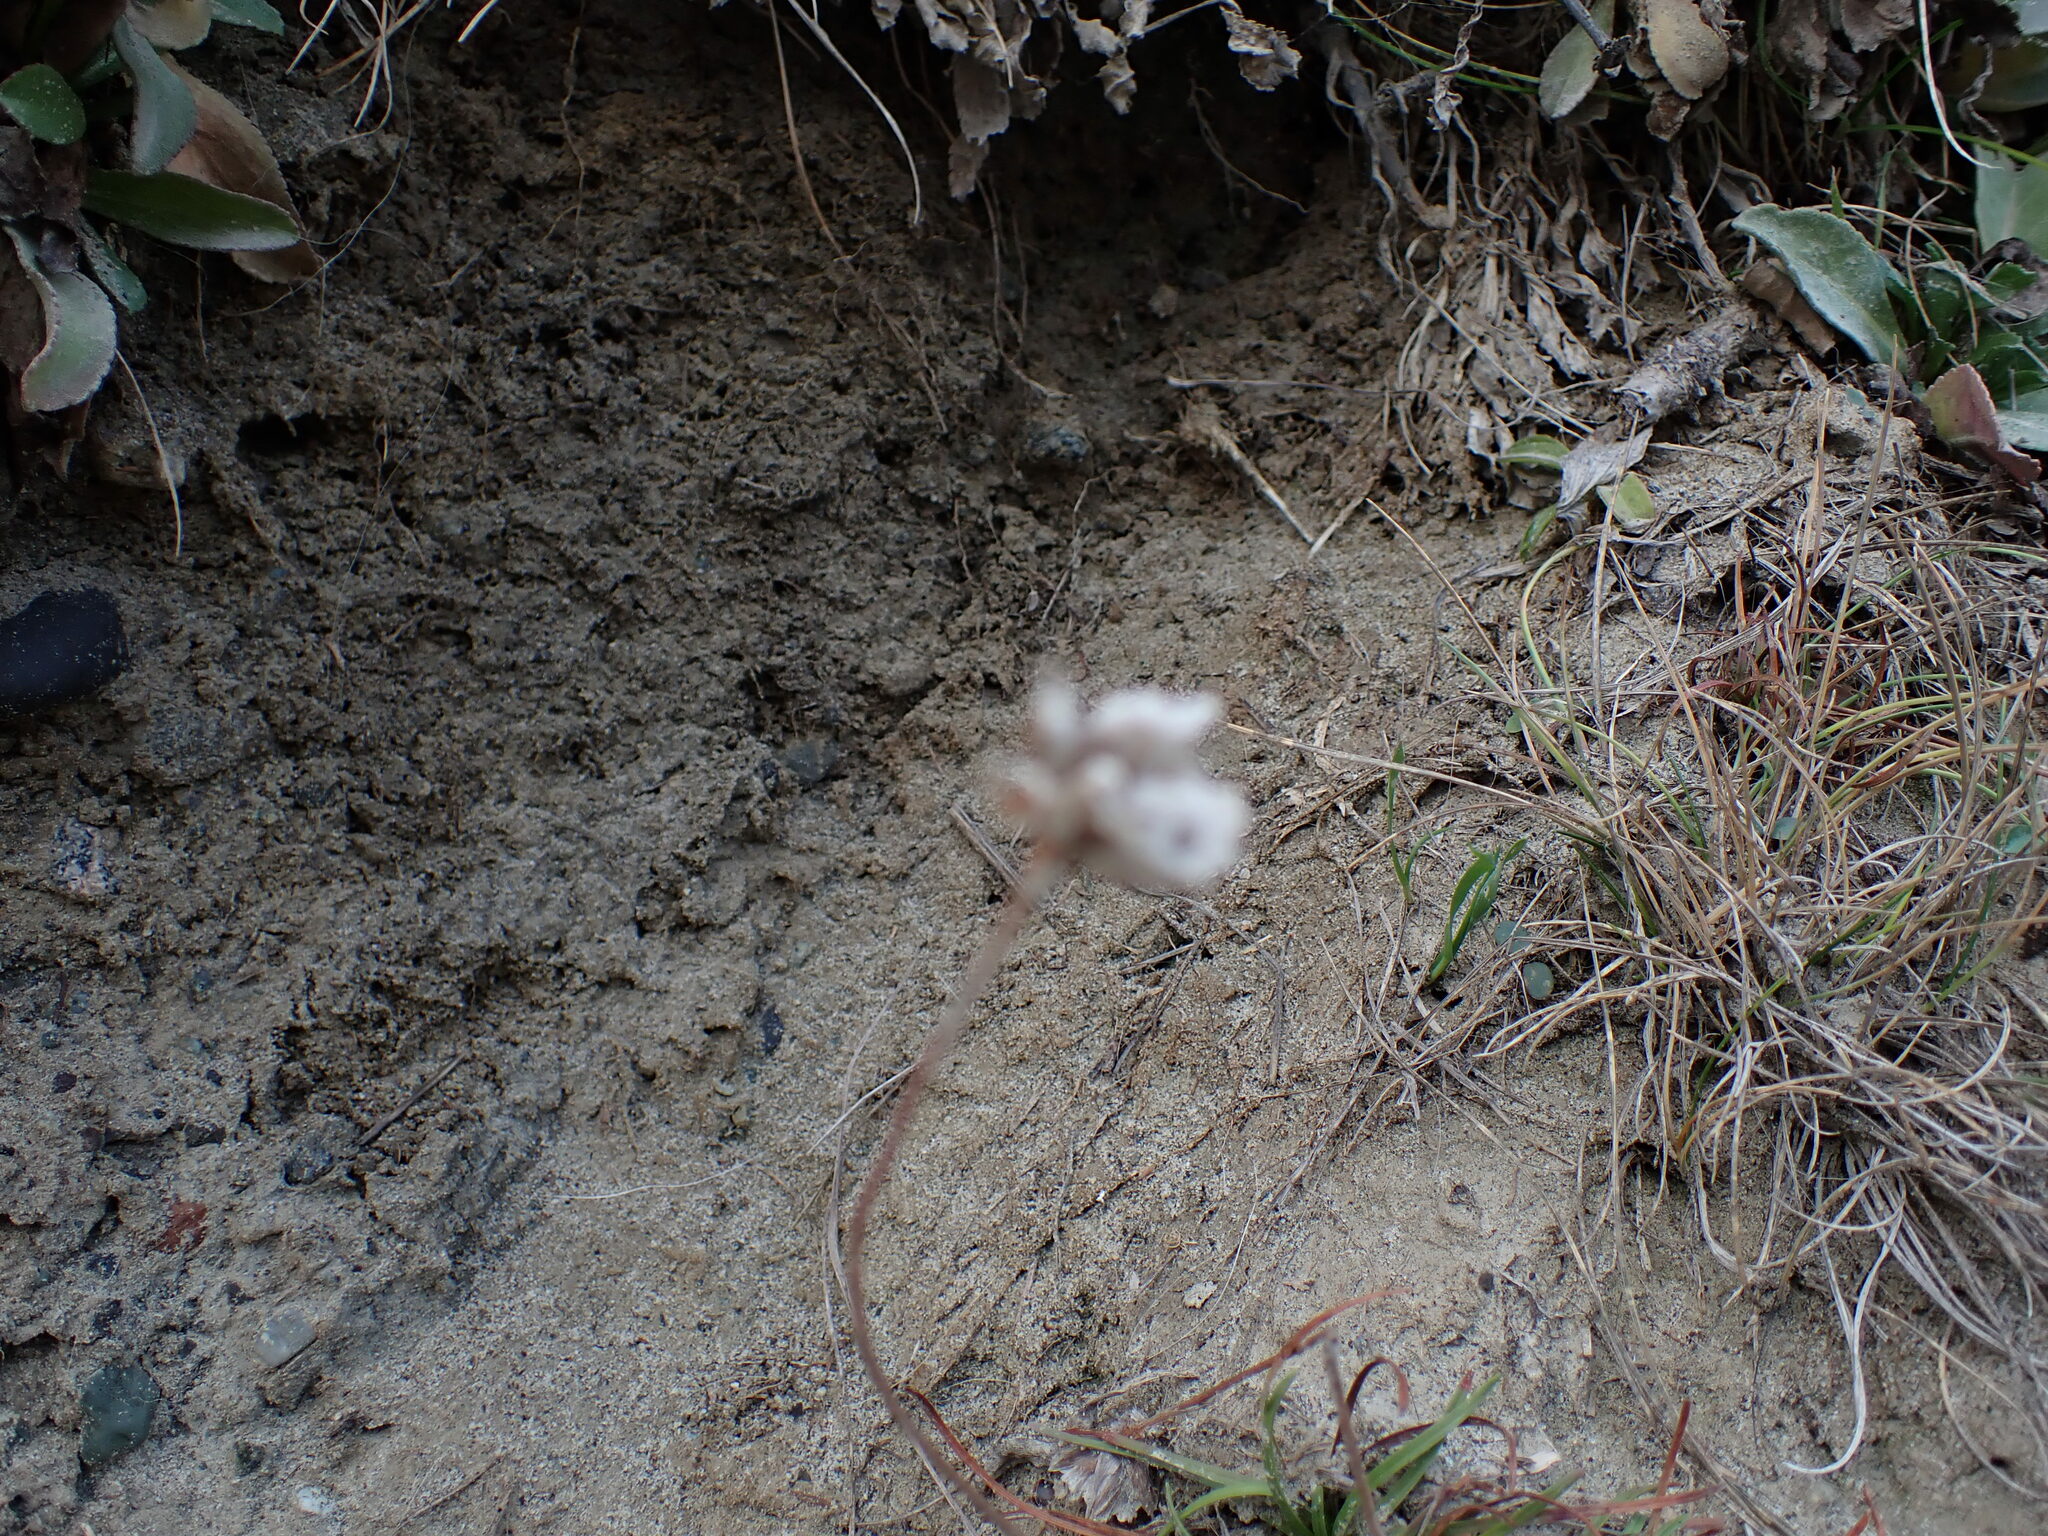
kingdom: Plantae
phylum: Tracheophyta
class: Magnoliopsida
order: Caryophyllales
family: Plumbaginaceae
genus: Armeria
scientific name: Armeria maritima
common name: Thrift
